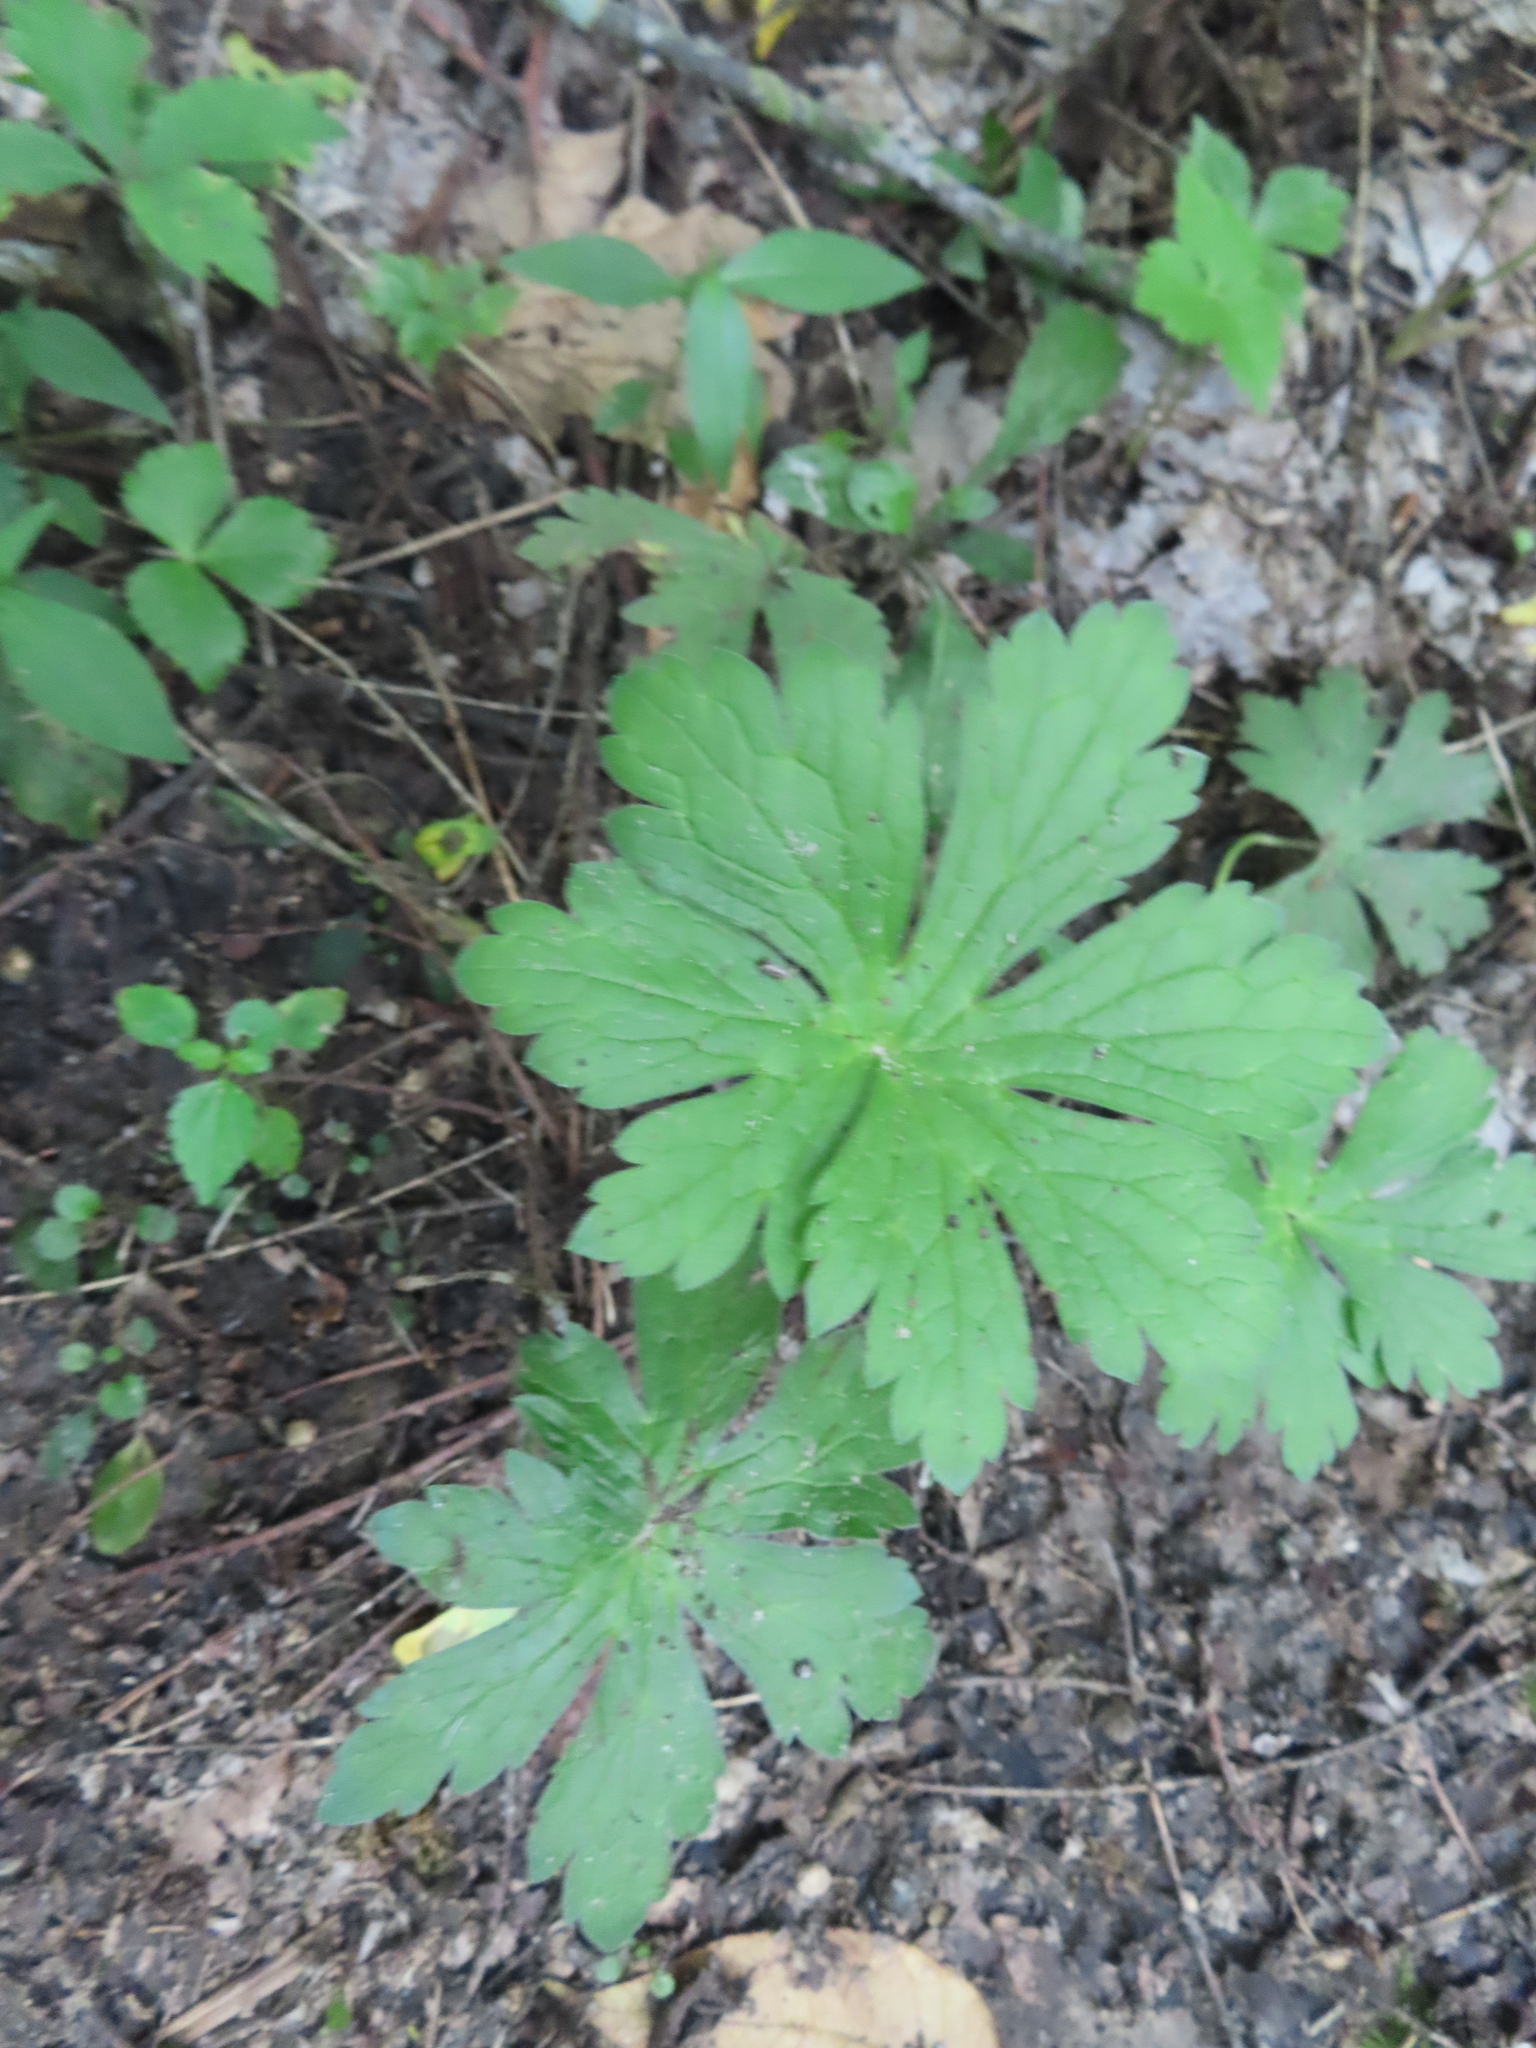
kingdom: Plantae
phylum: Tracheophyta
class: Magnoliopsida
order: Geraniales
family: Geraniaceae
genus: Geranium
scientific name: Geranium maculatum
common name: Spotted geranium
